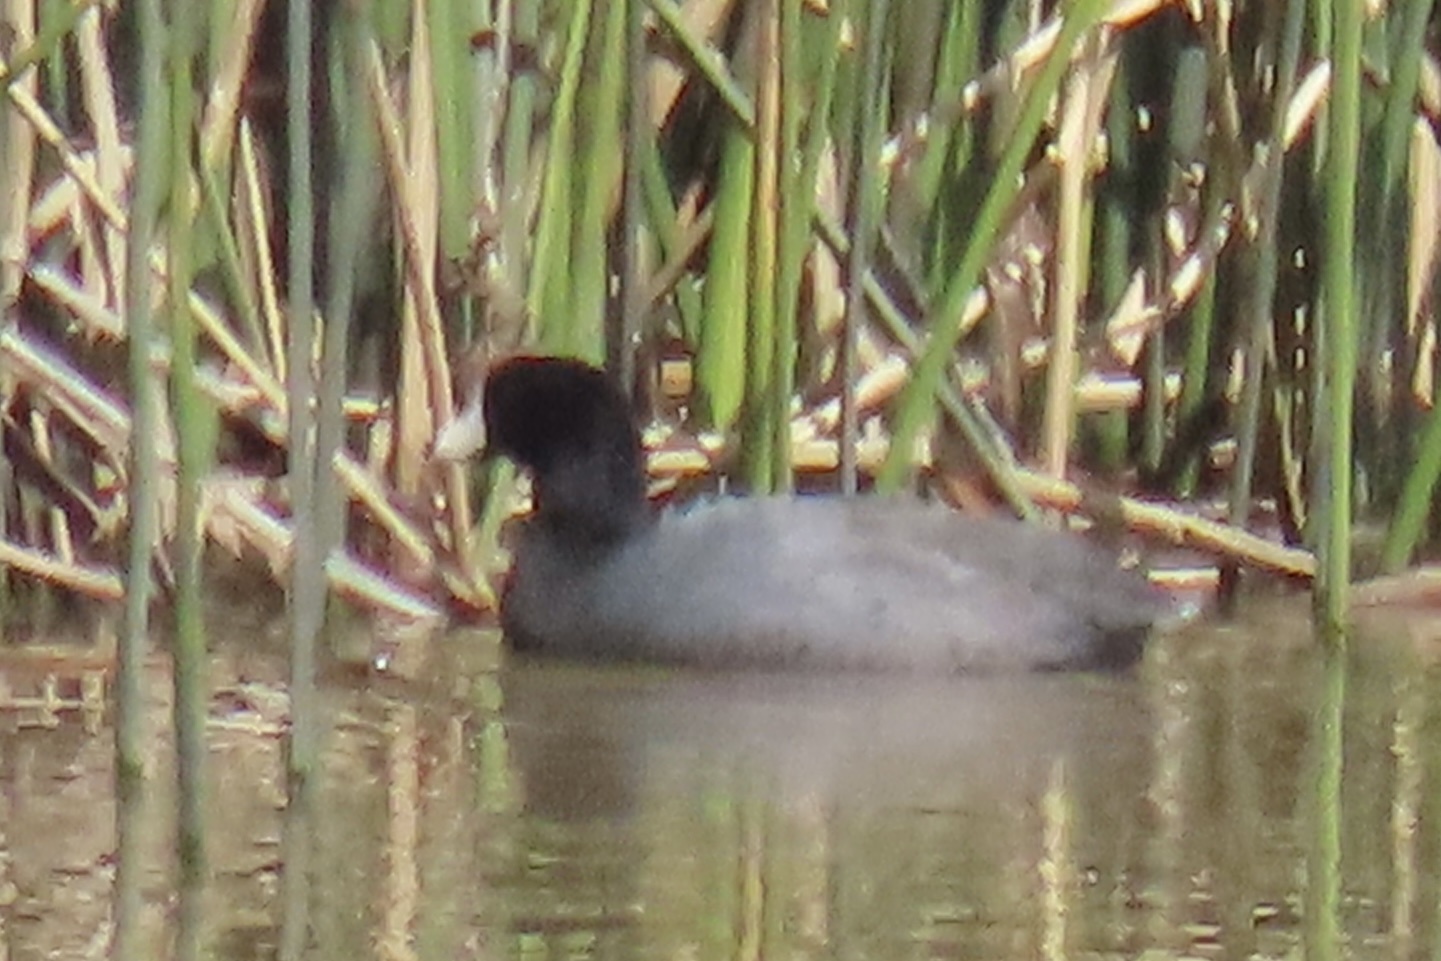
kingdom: Animalia
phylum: Chordata
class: Aves
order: Gruiformes
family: Rallidae
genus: Fulica
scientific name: Fulica americana
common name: American coot
